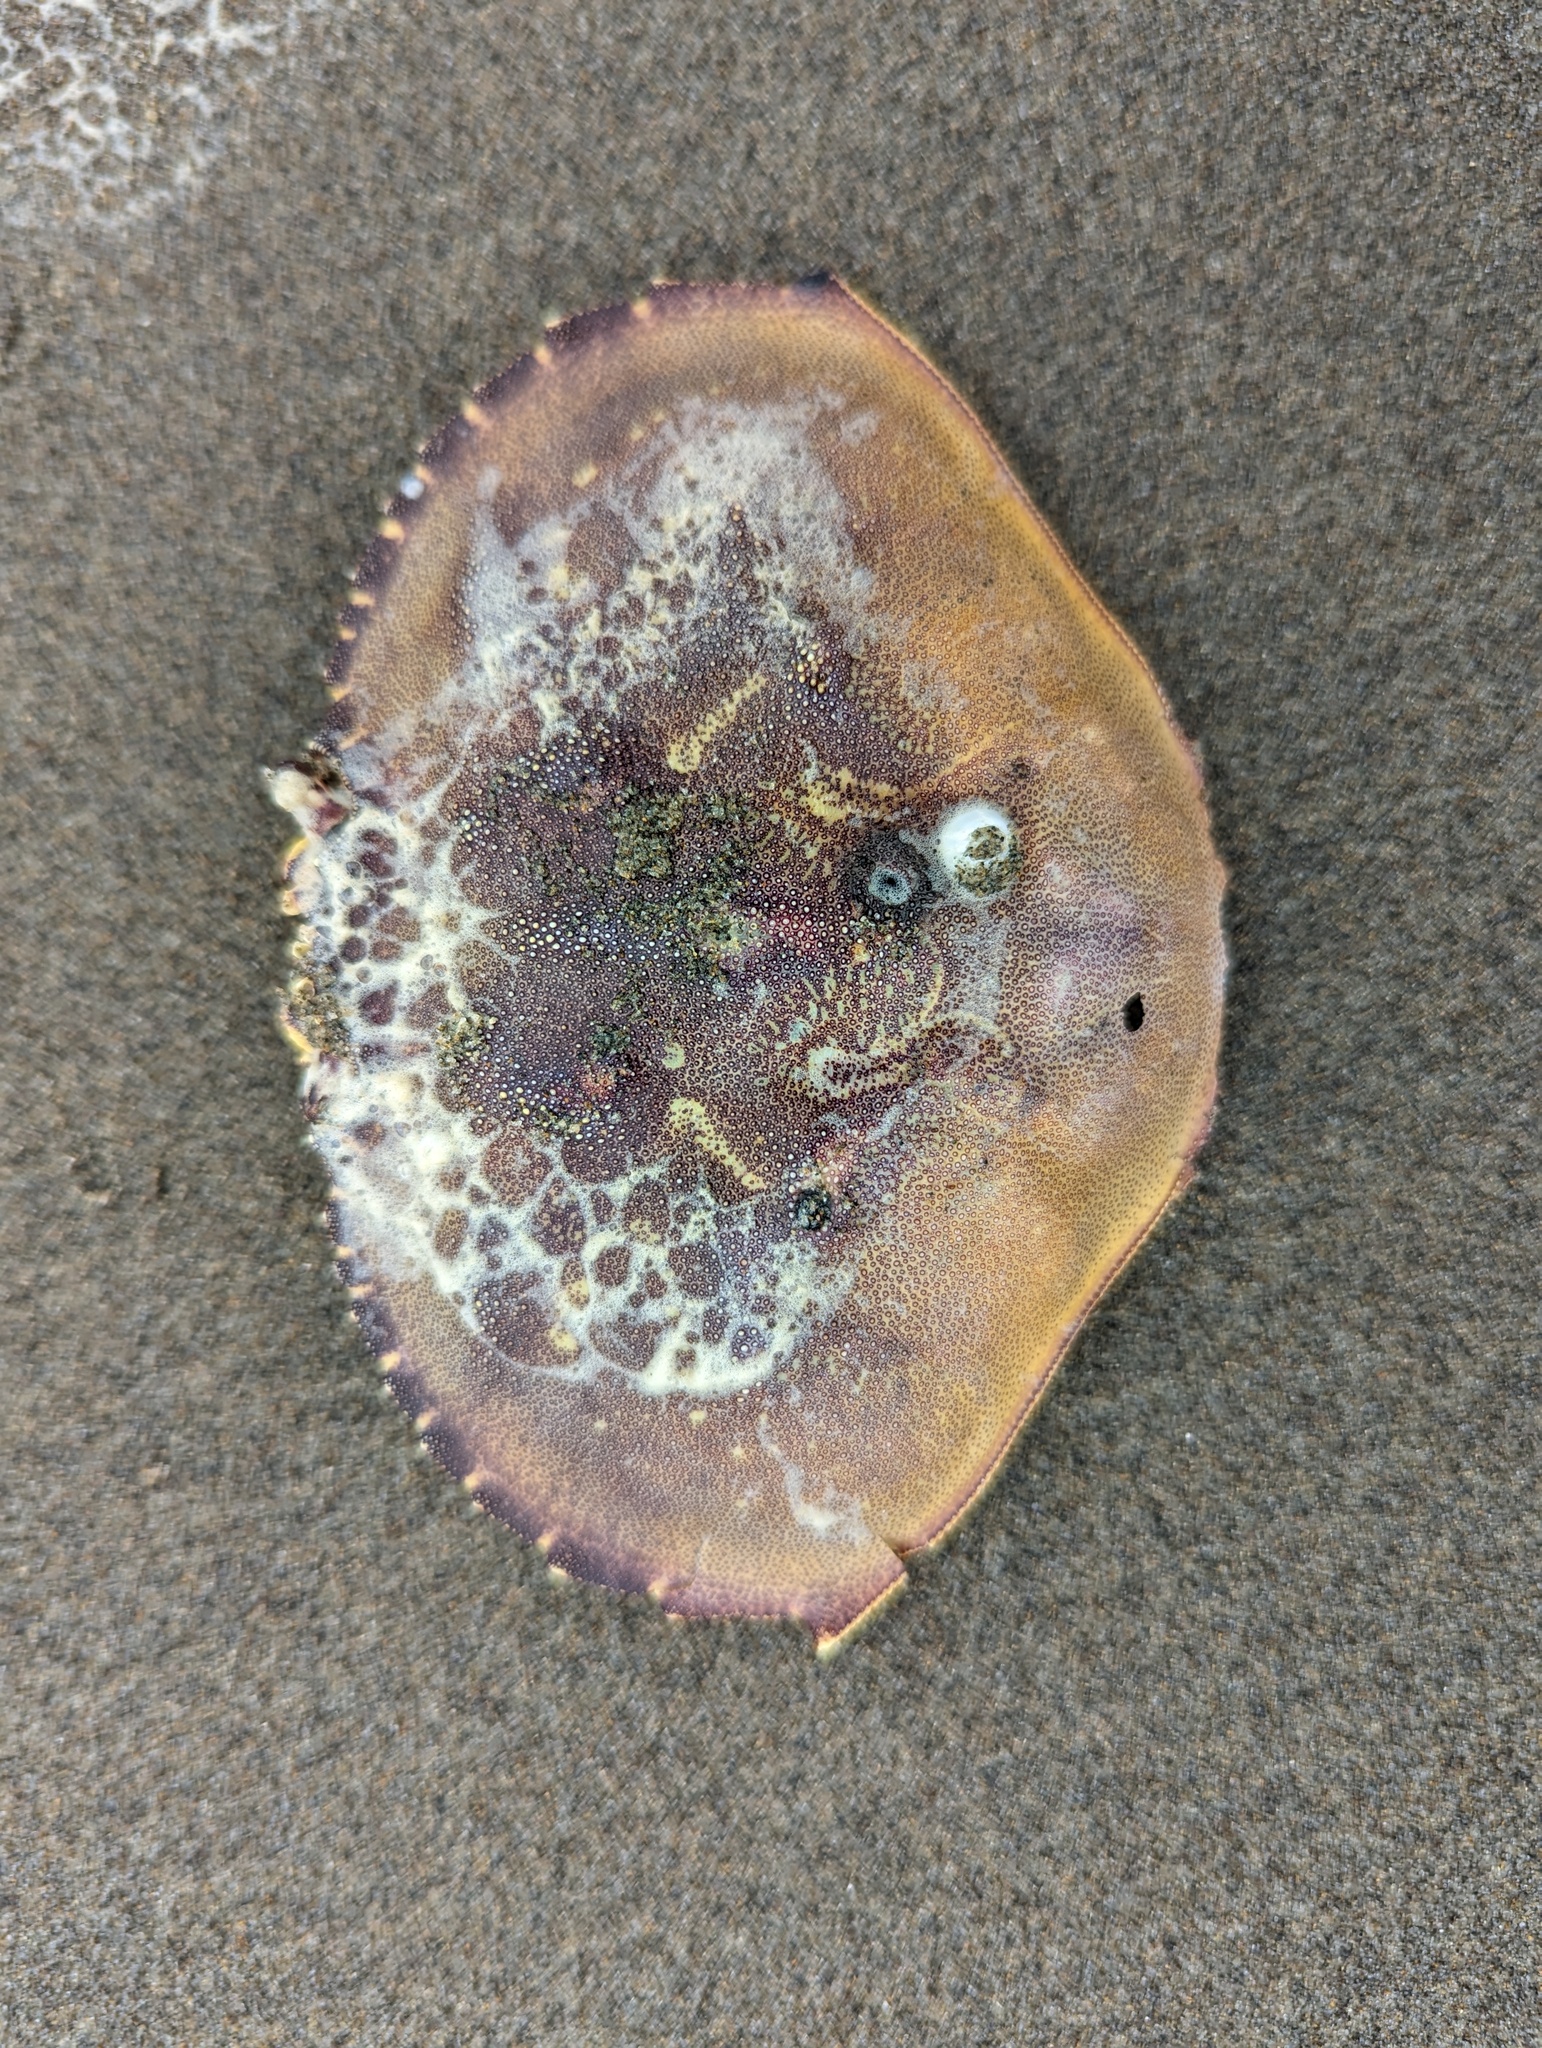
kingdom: Animalia
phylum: Arthropoda
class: Malacostraca
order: Decapoda
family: Cancridae
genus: Metacarcinus
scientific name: Metacarcinus magister
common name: Californian crab
